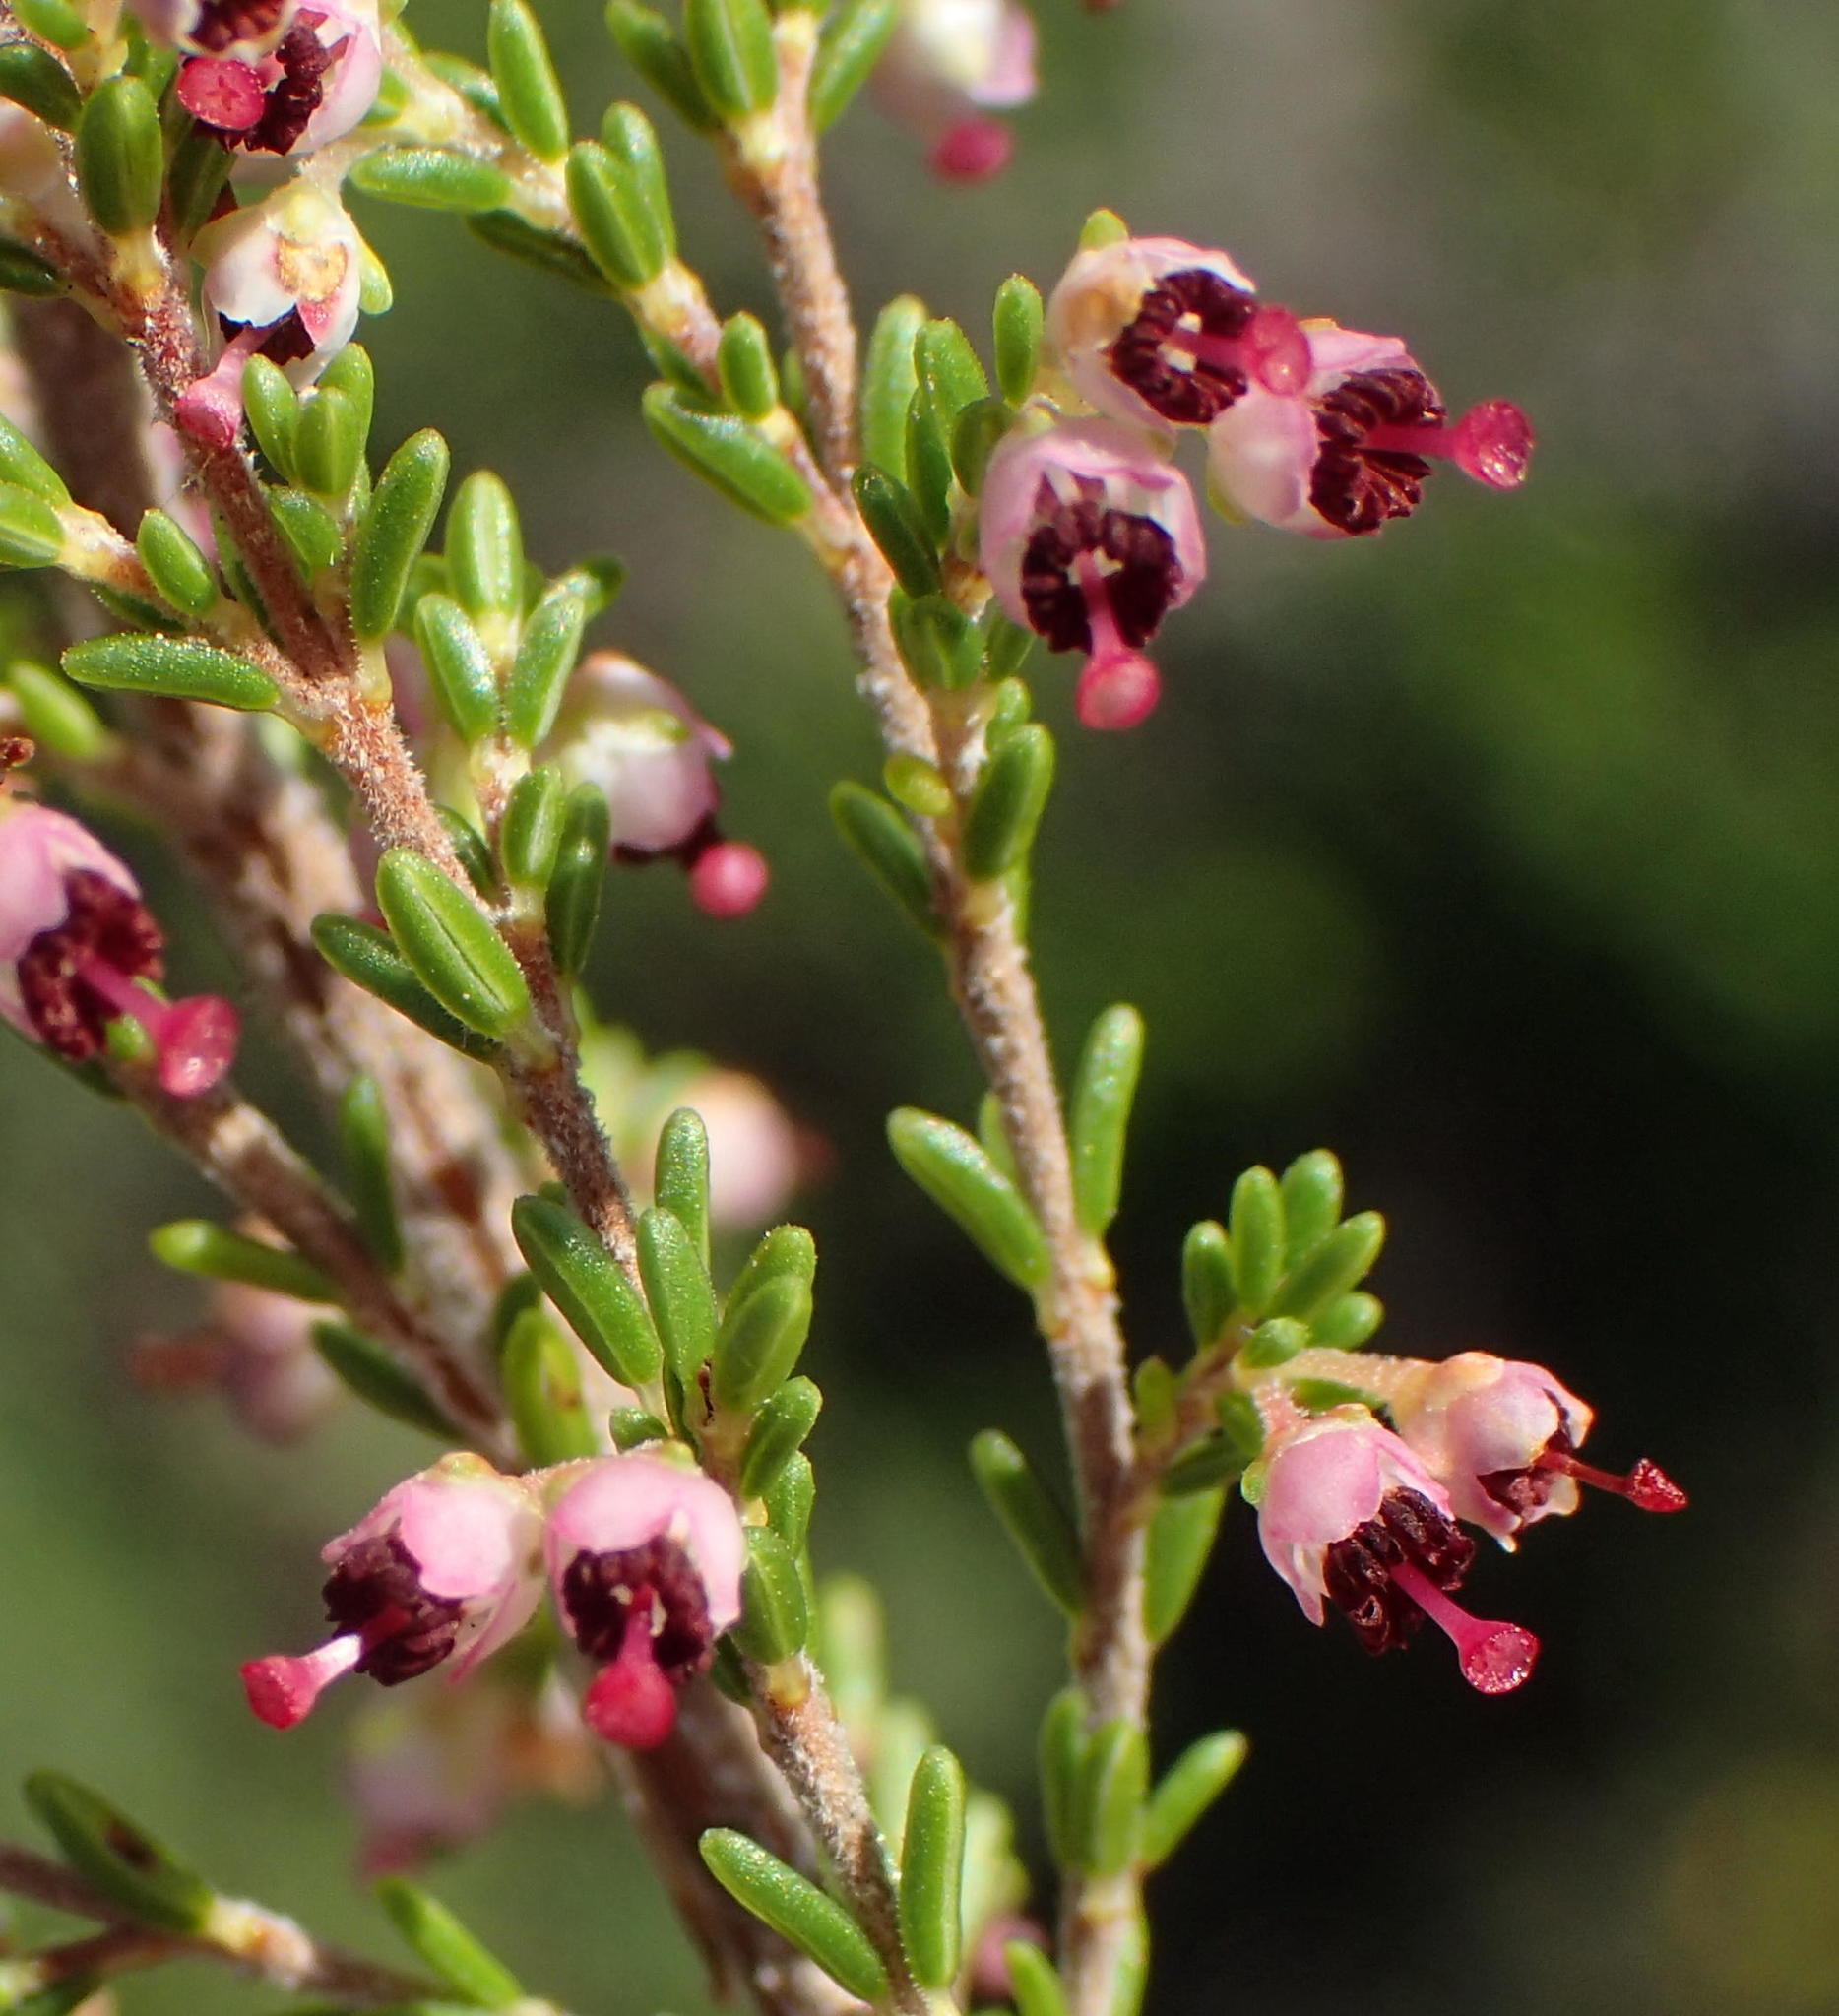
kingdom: Plantae
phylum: Tracheophyta
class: Magnoliopsida
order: Ericales
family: Ericaceae
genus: Erica
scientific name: Erica peltata
